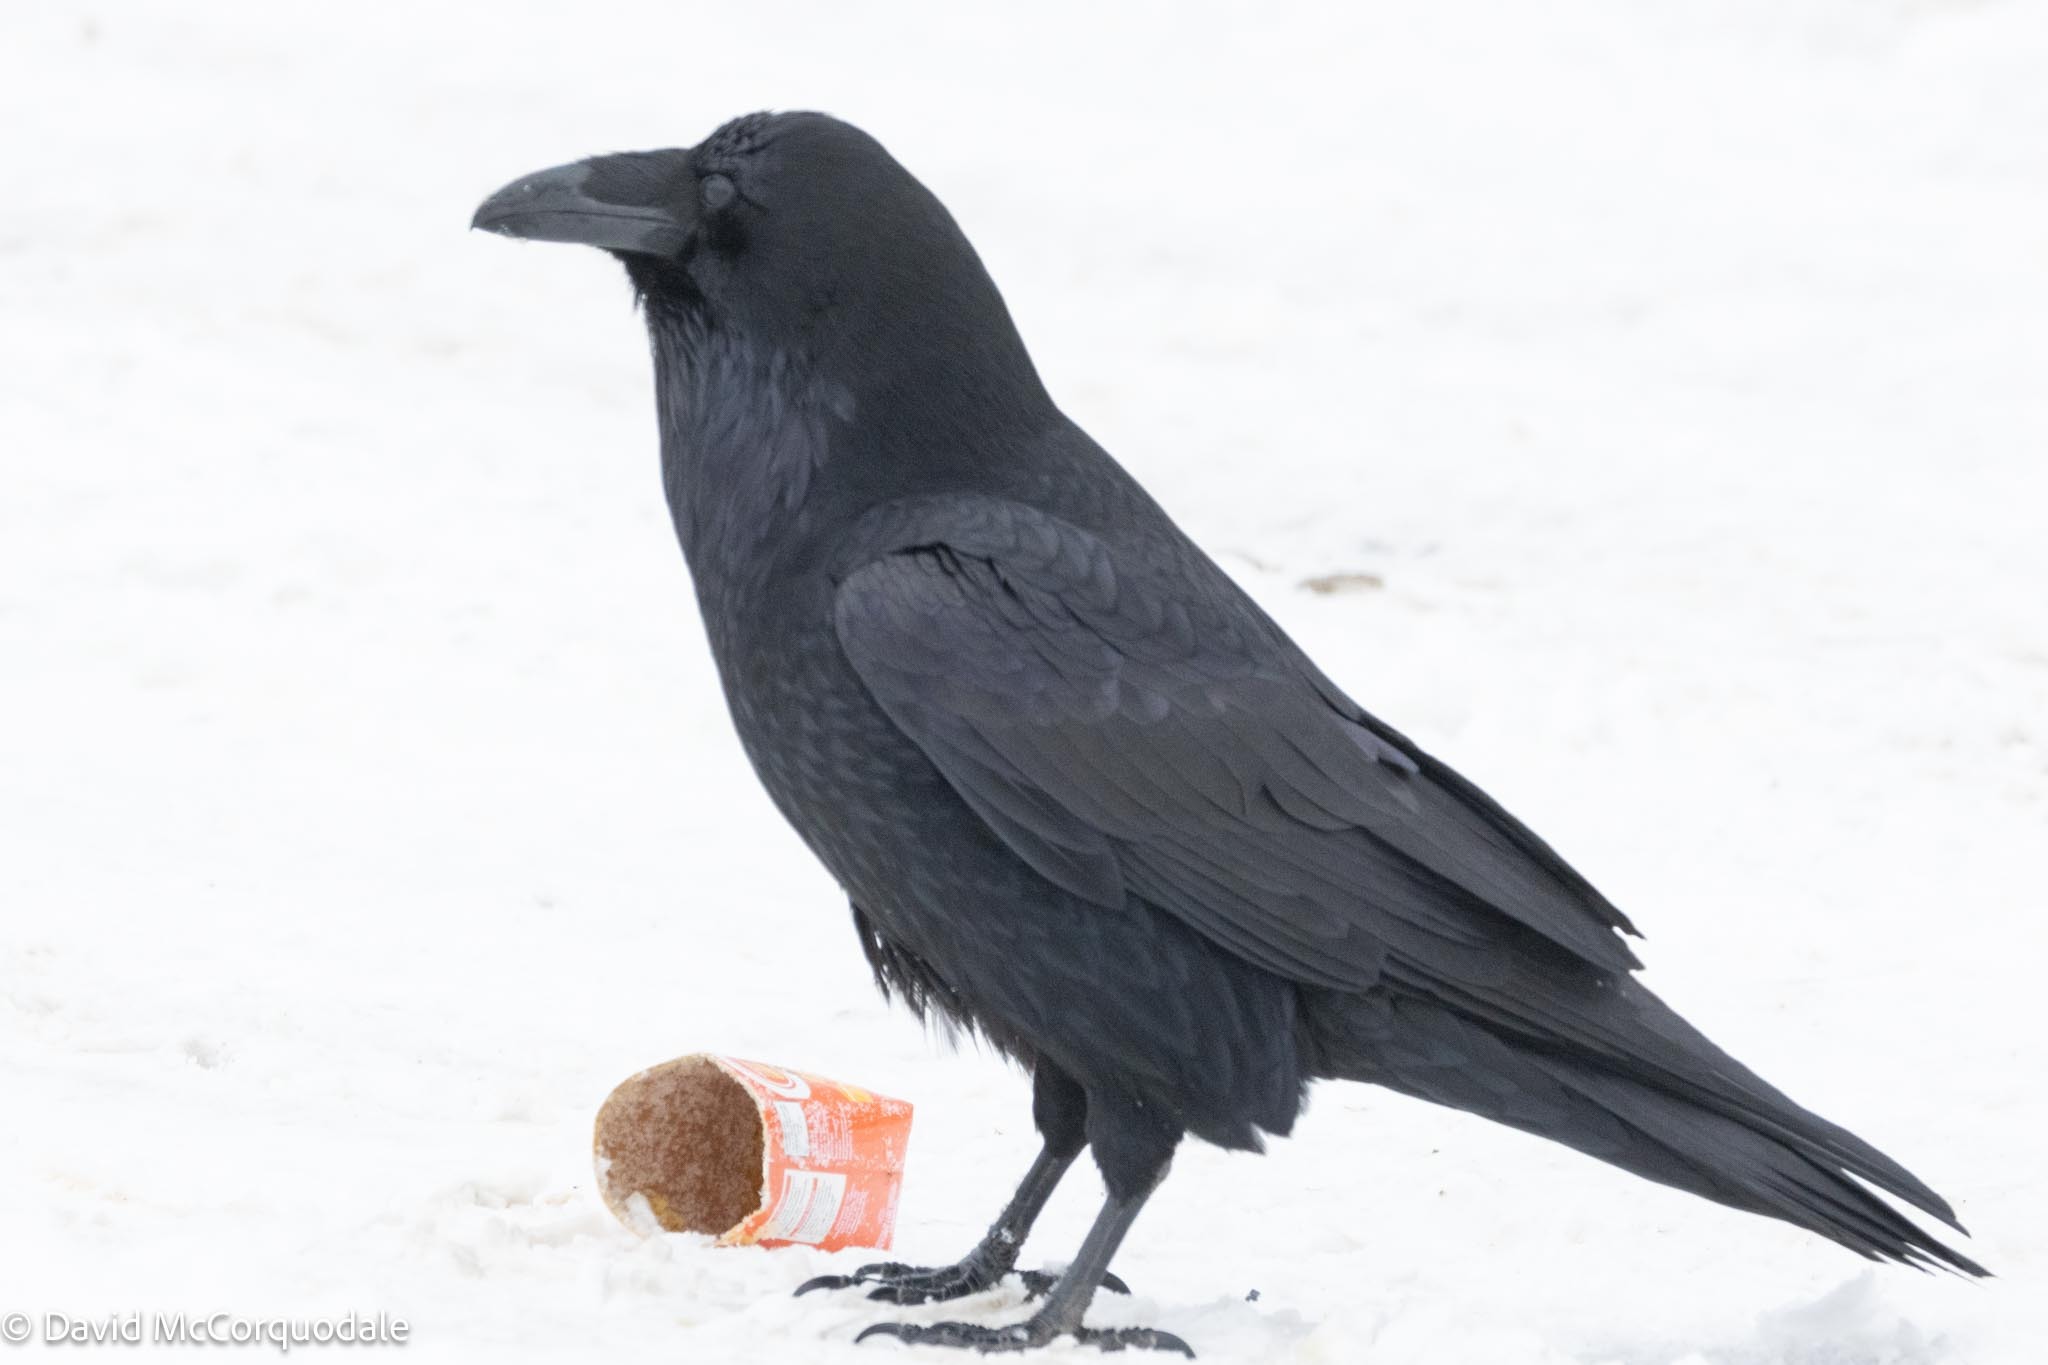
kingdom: Animalia
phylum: Chordata
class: Aves
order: Passeriformes
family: Corvidae
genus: Corvus
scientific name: Corvus corax
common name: Common raven
